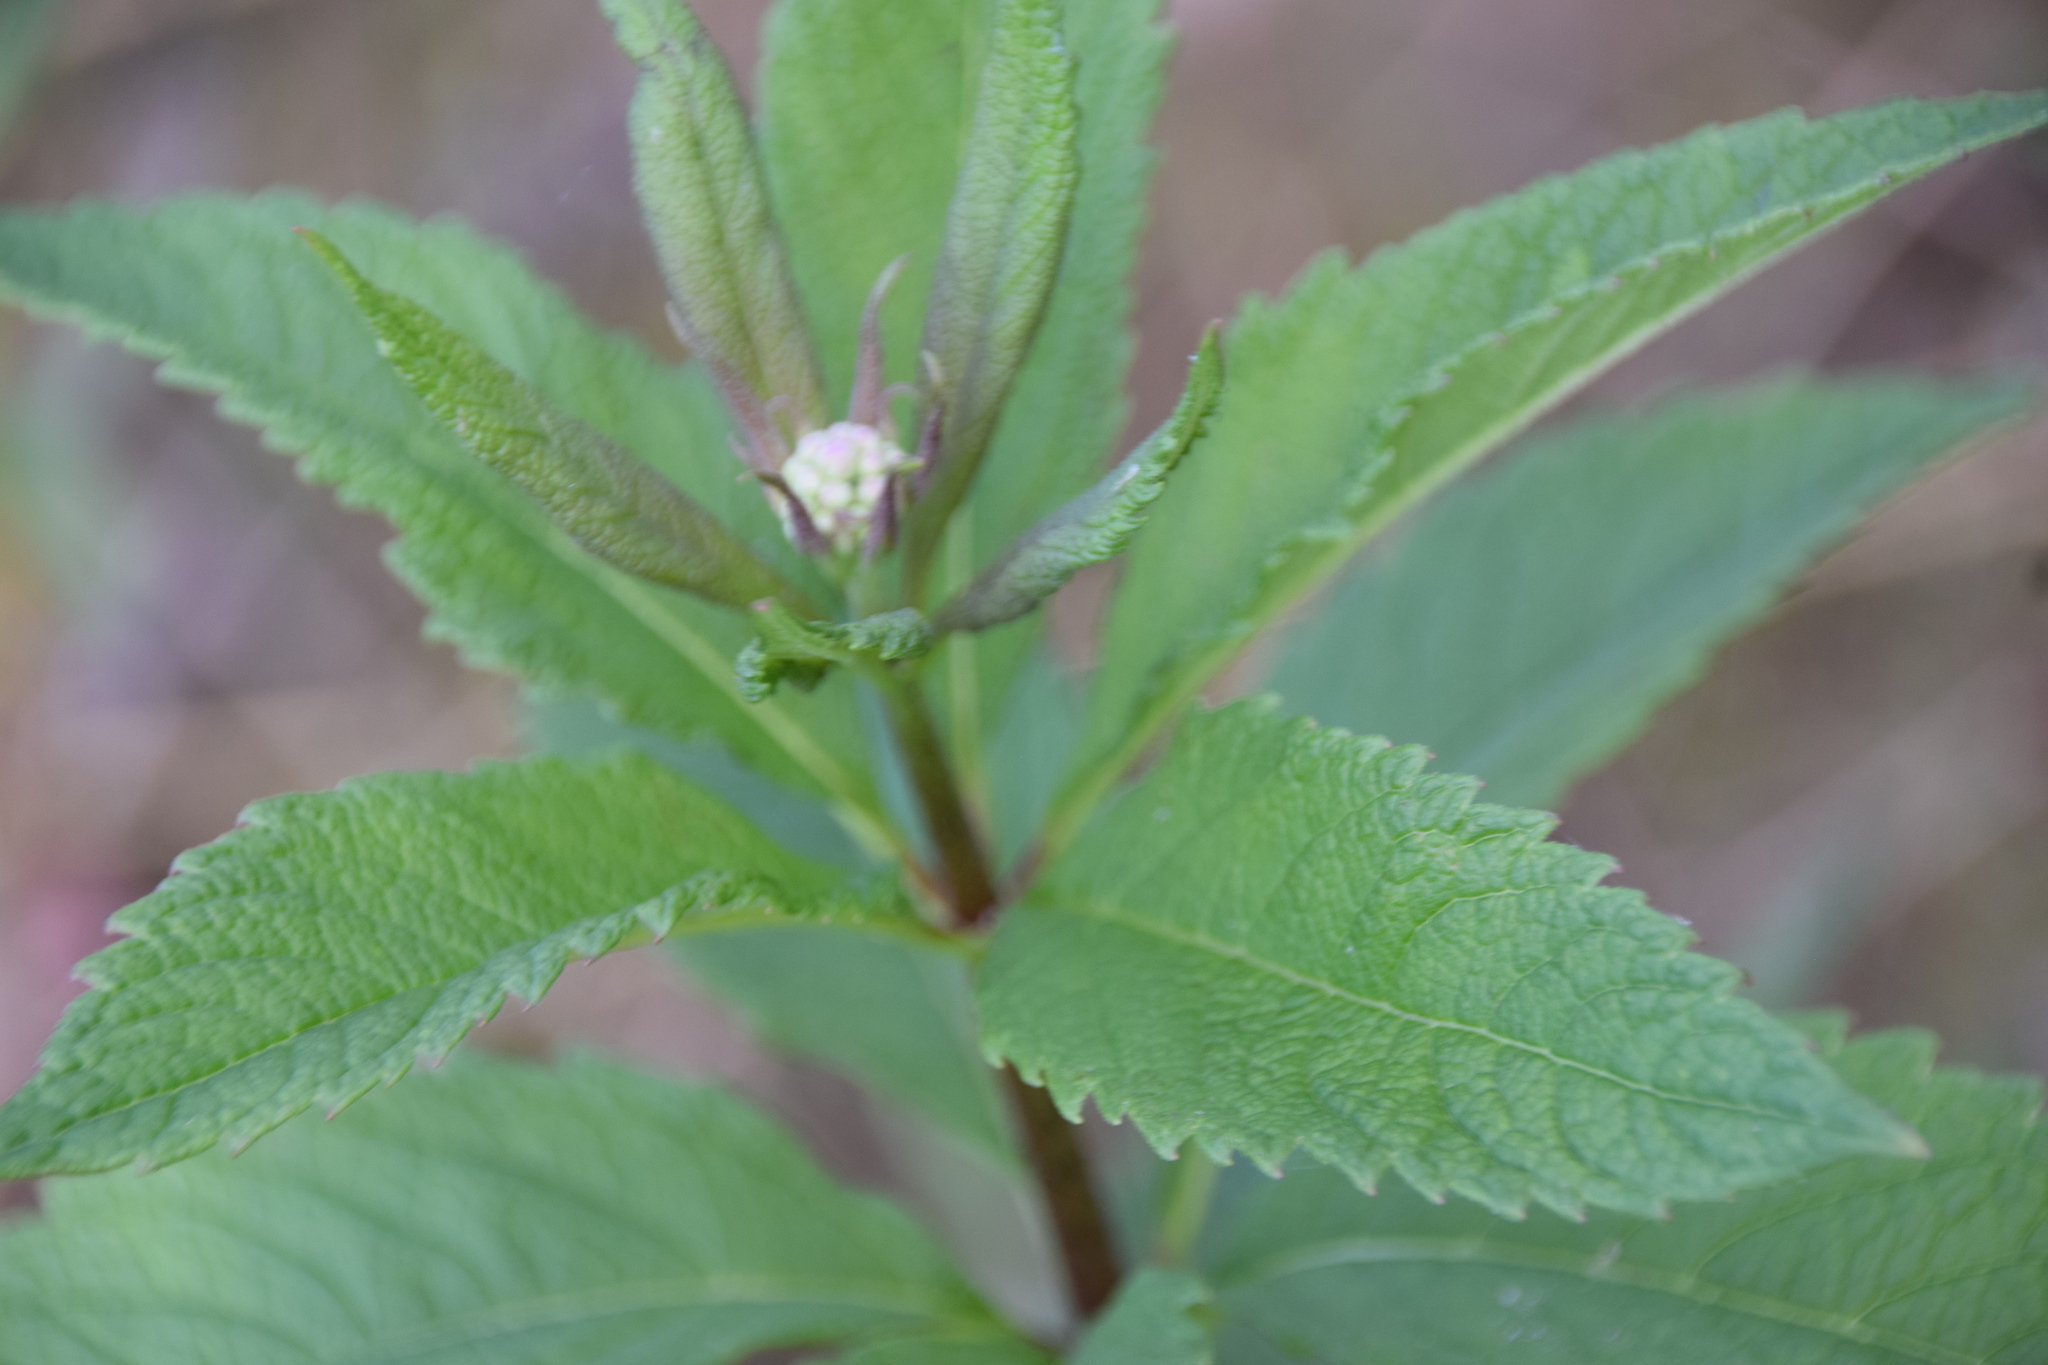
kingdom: Plantae
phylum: Tracheophyta
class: Magnoliopsida
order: Asterales
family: Asteraceae
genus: Eutrochium
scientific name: Eutrochium maculatum
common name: Spotted joe pye weed
